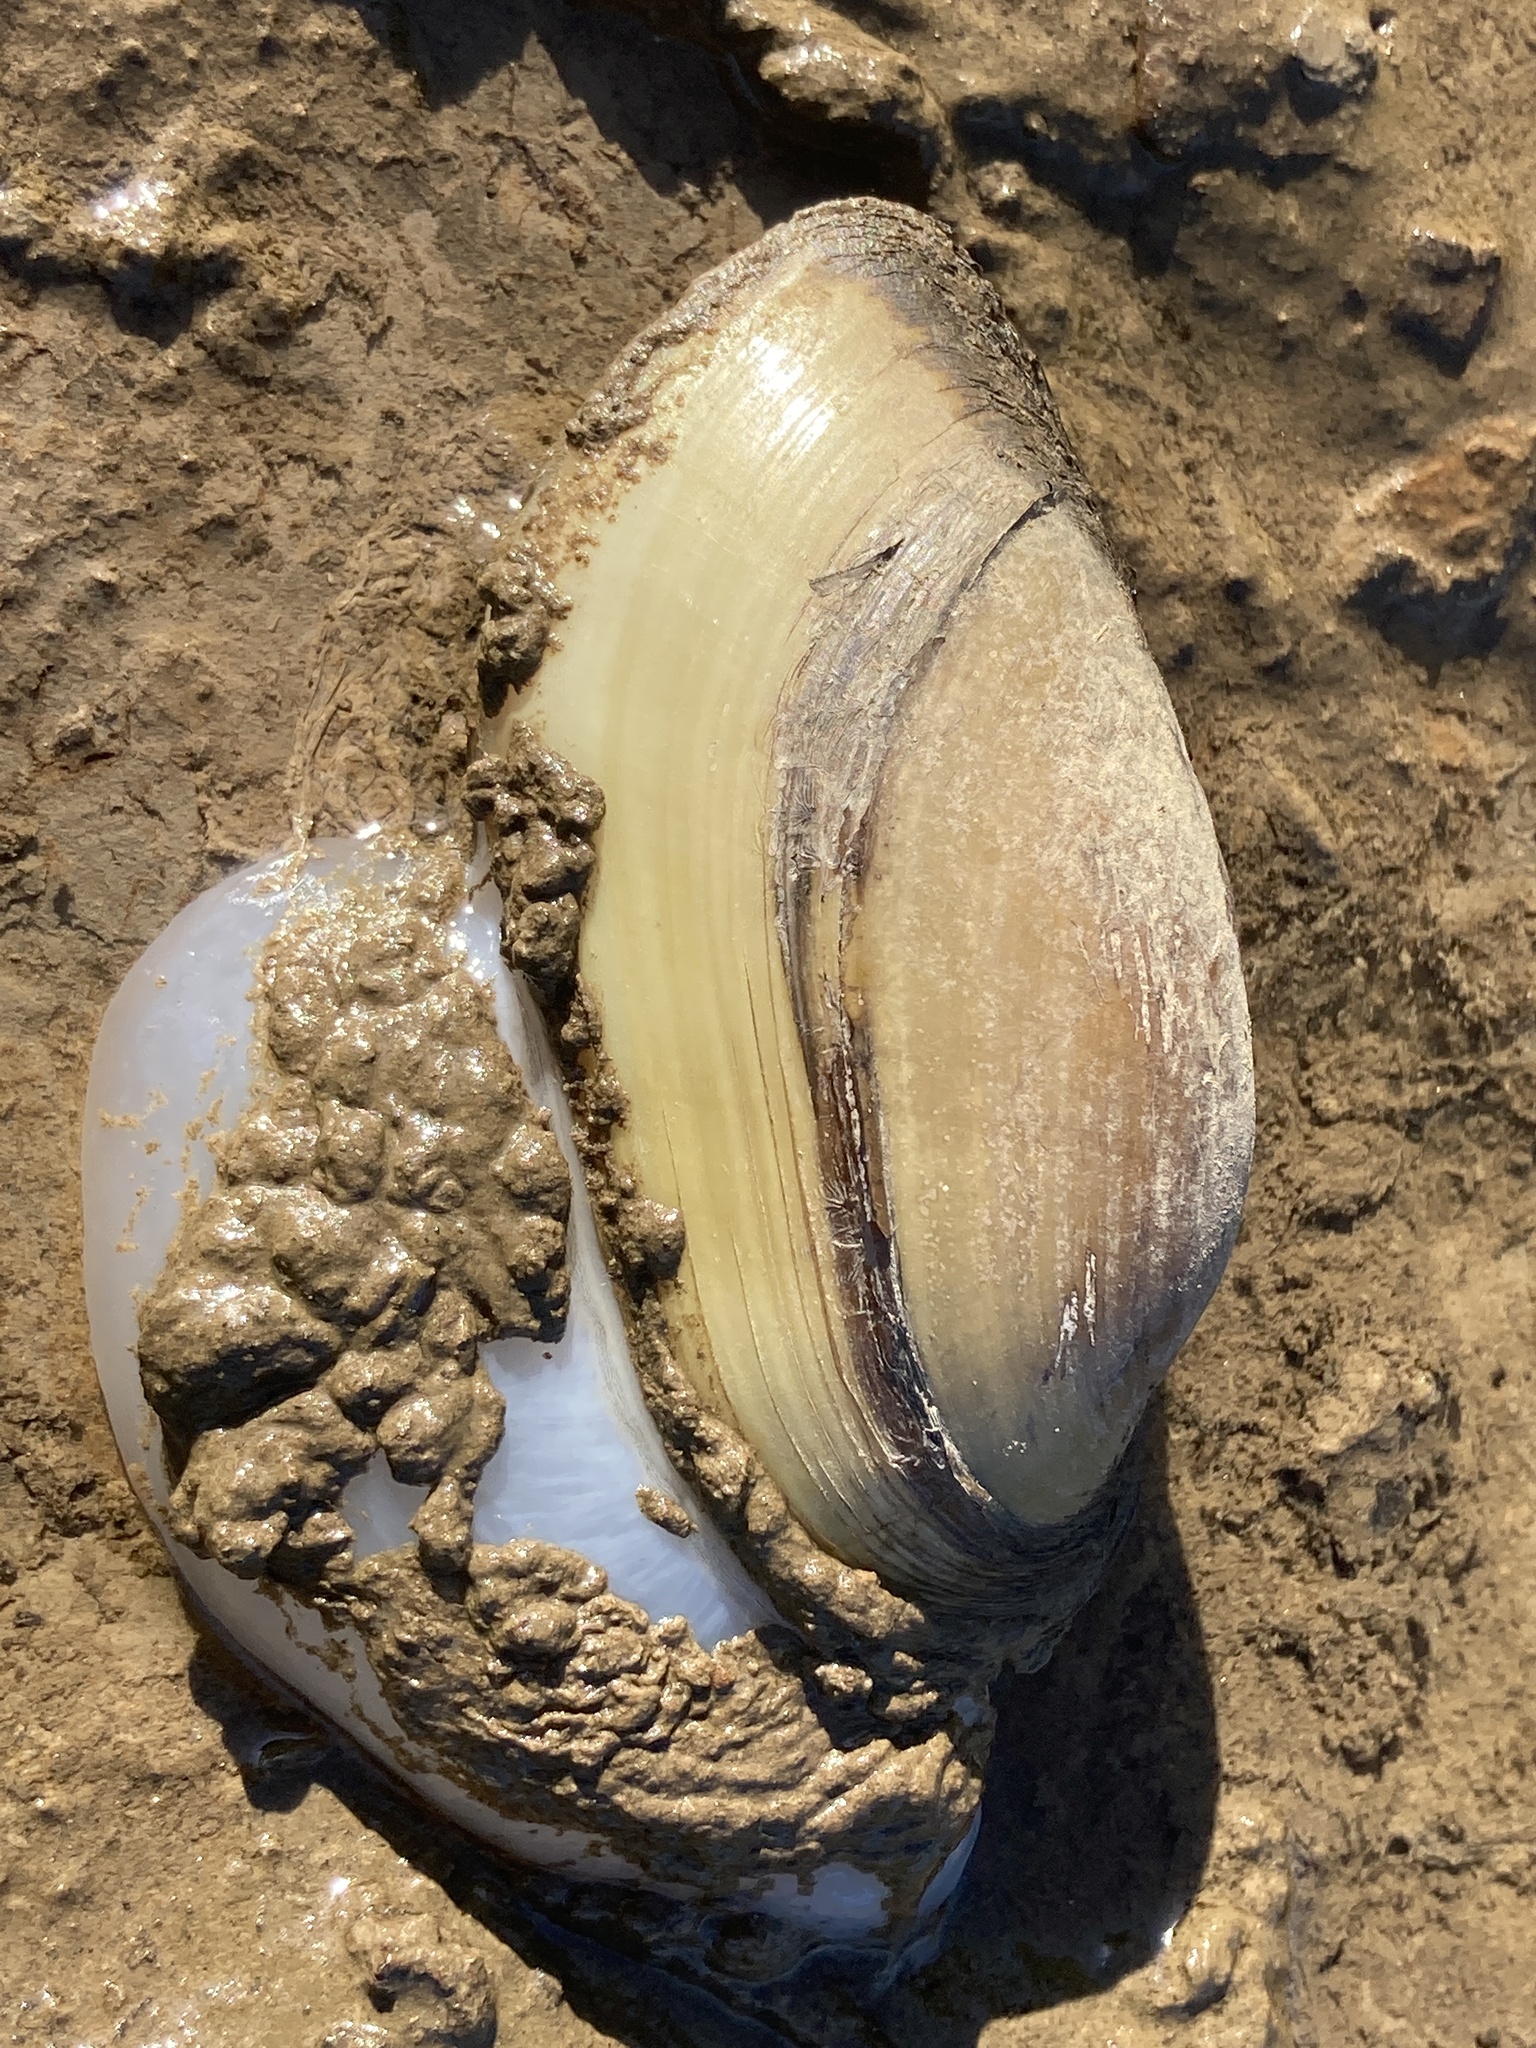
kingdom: Animalia
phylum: Mollusca
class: Bivalvia
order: Unionida
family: Unionidae
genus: Lampsilis
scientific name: Lampsilis teres
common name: Yellow sandshell
